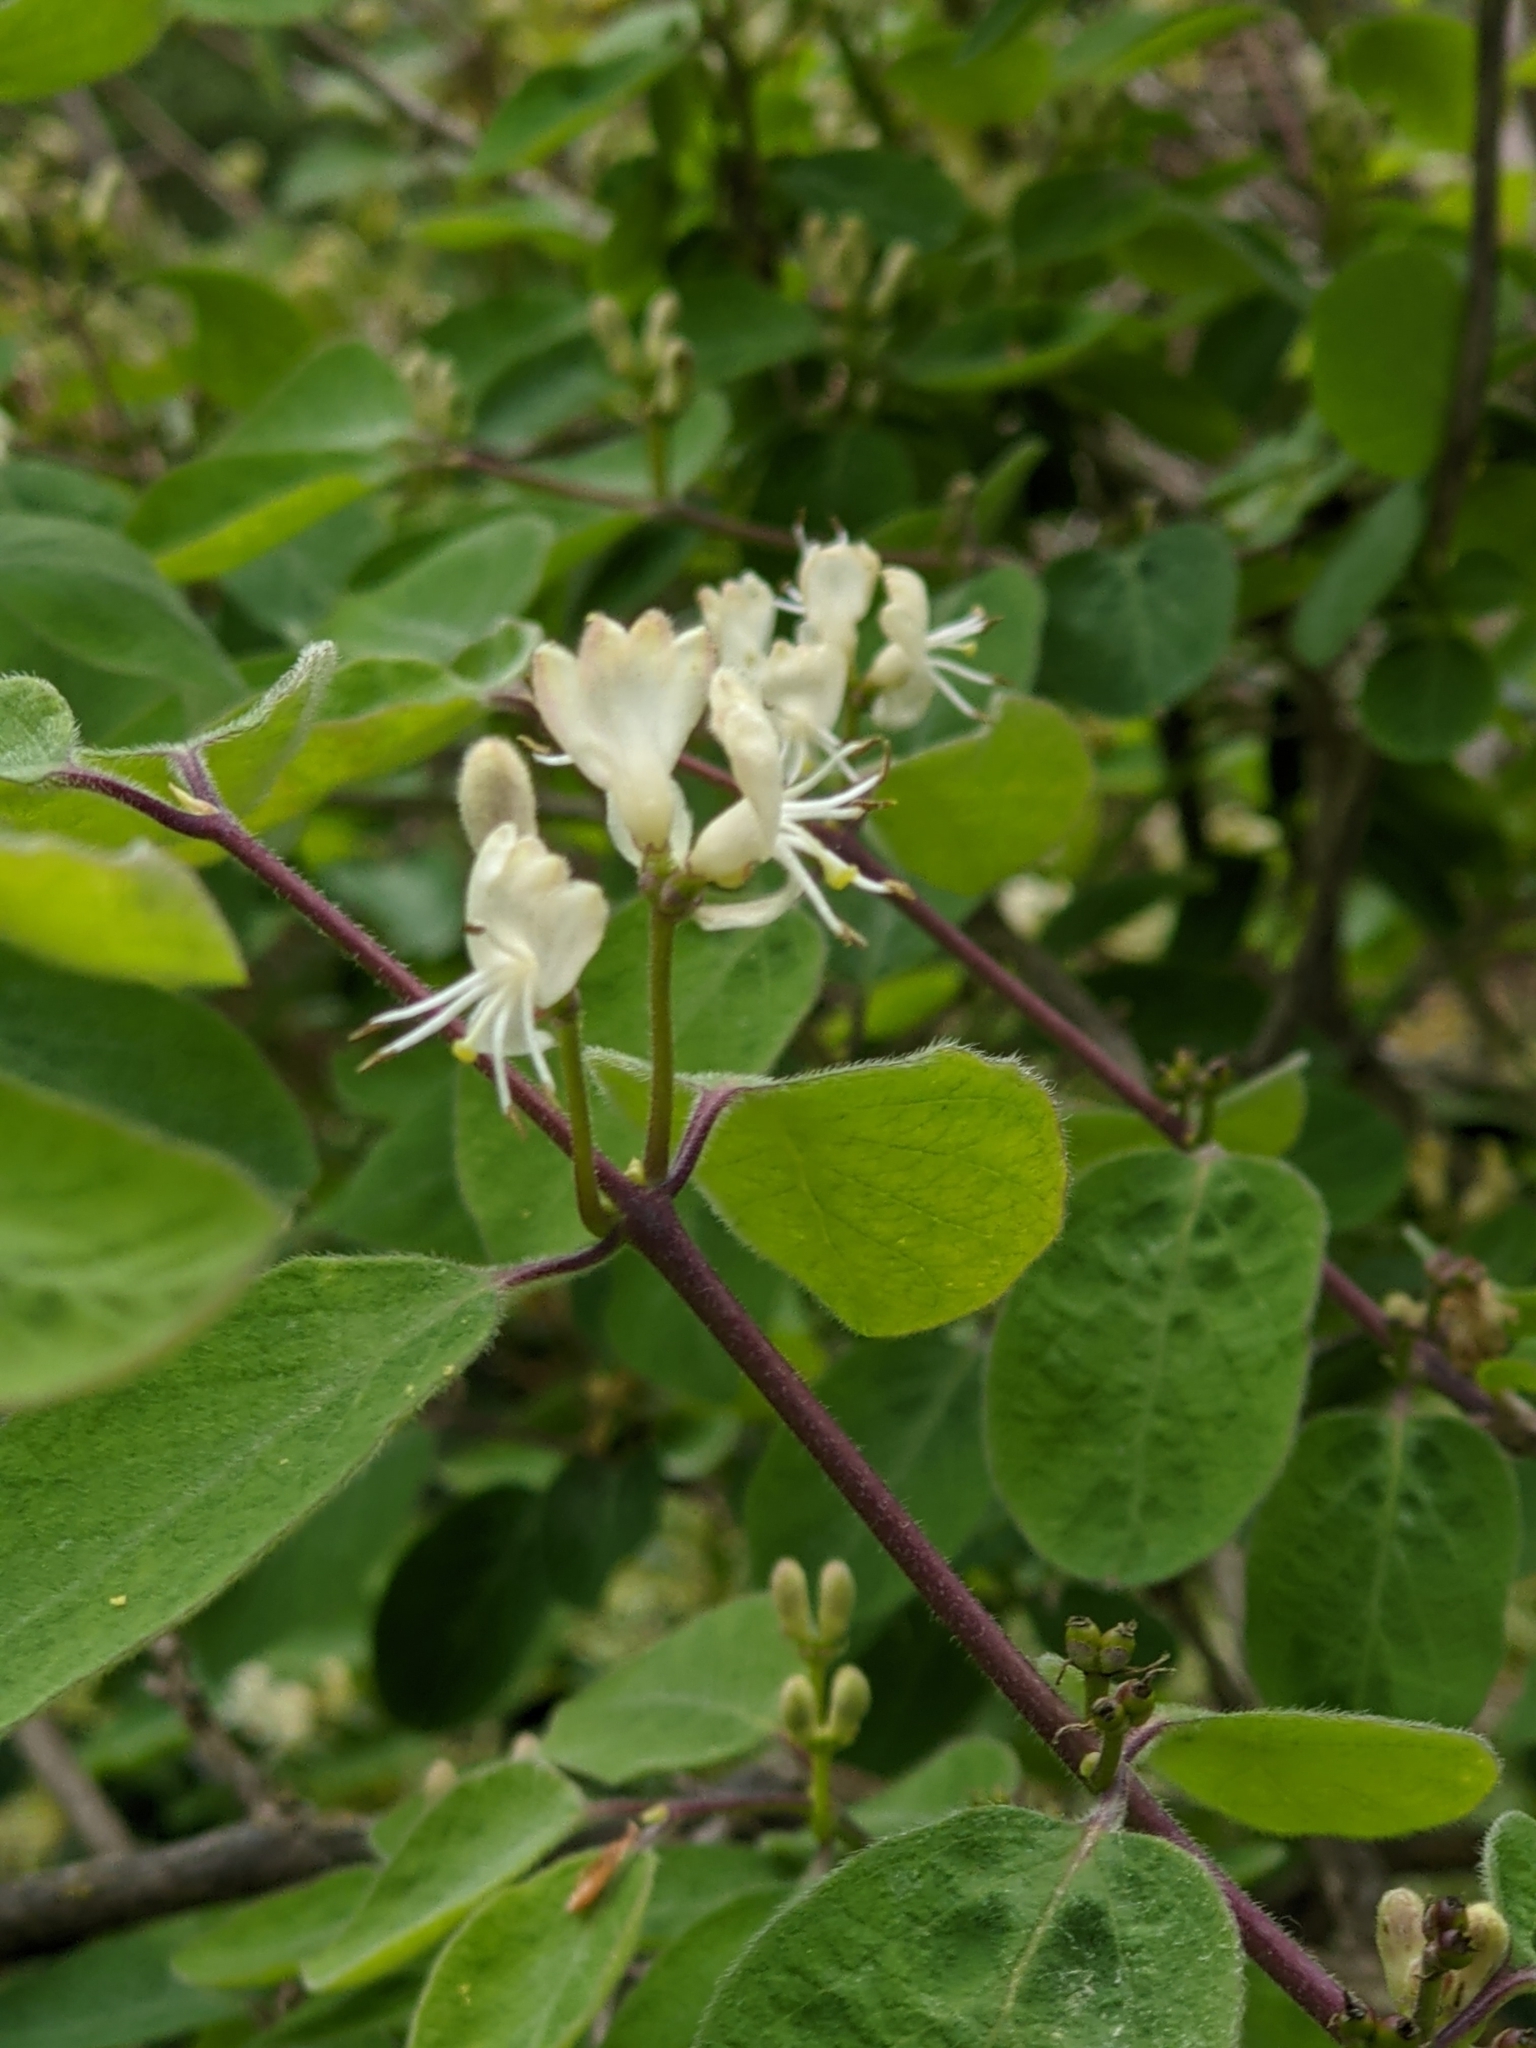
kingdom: Plantae
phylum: Tracheophyta
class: Magnoliopsida
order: Dipsacales
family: Caprifoliaceae
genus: Lonicera
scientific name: Lonicera xylosteum
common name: Fly honeysuckle
